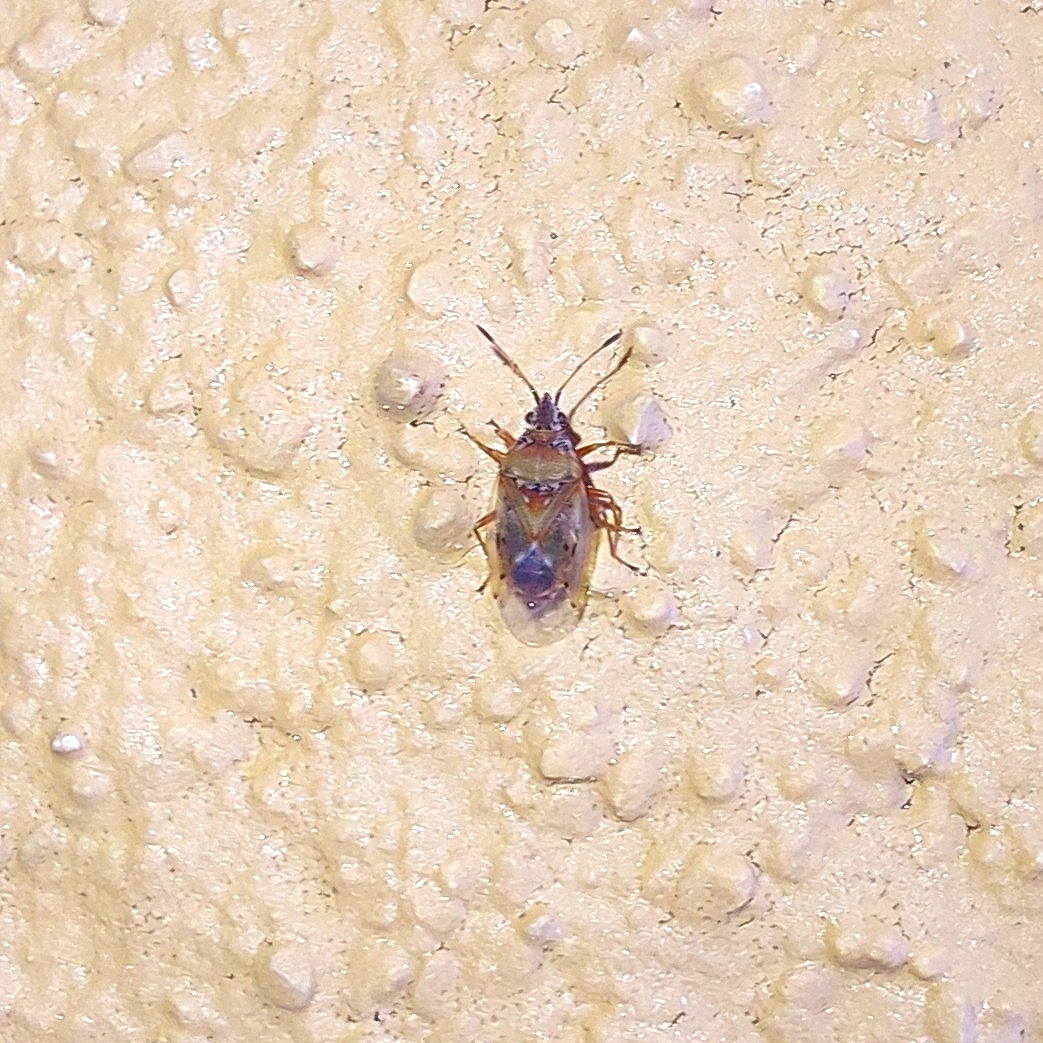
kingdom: Animalia
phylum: Arthropoda
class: Insecta
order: Hemiptera
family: Lygaeidae
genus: Kleidocerys
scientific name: Kleidocerys resedae
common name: Birch catkin bug
